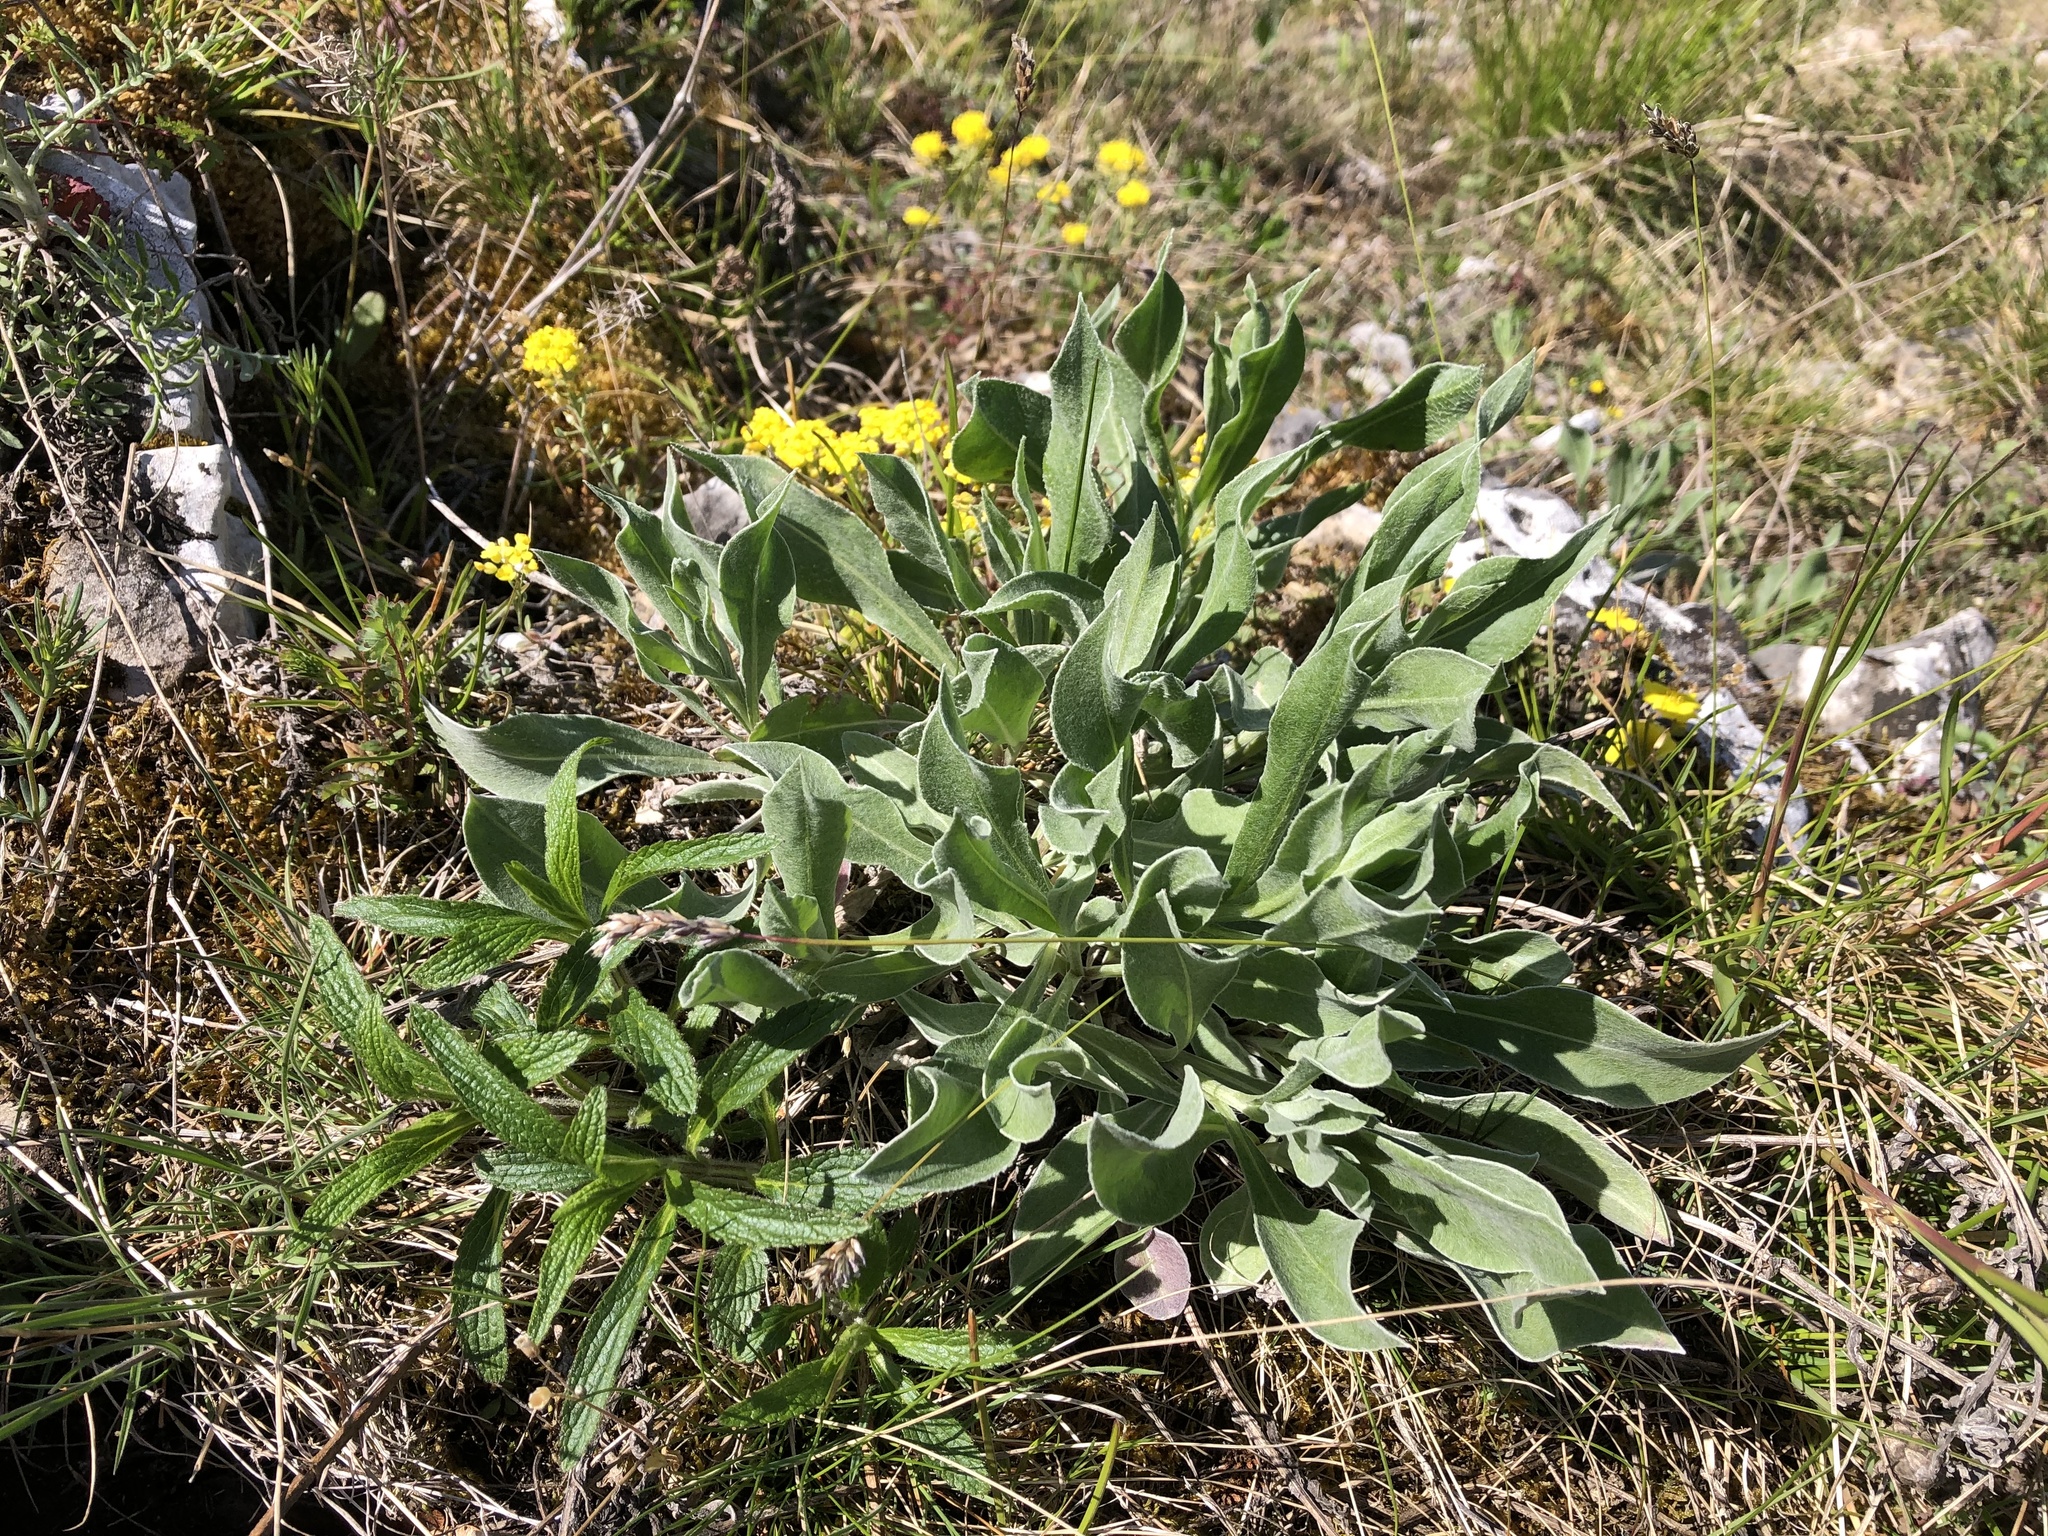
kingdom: Plantae
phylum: Tracheophyta
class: Magnoliopsida
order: Asterales
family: Asteraceae
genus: Centaurea
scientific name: Centaurea triumfettii
